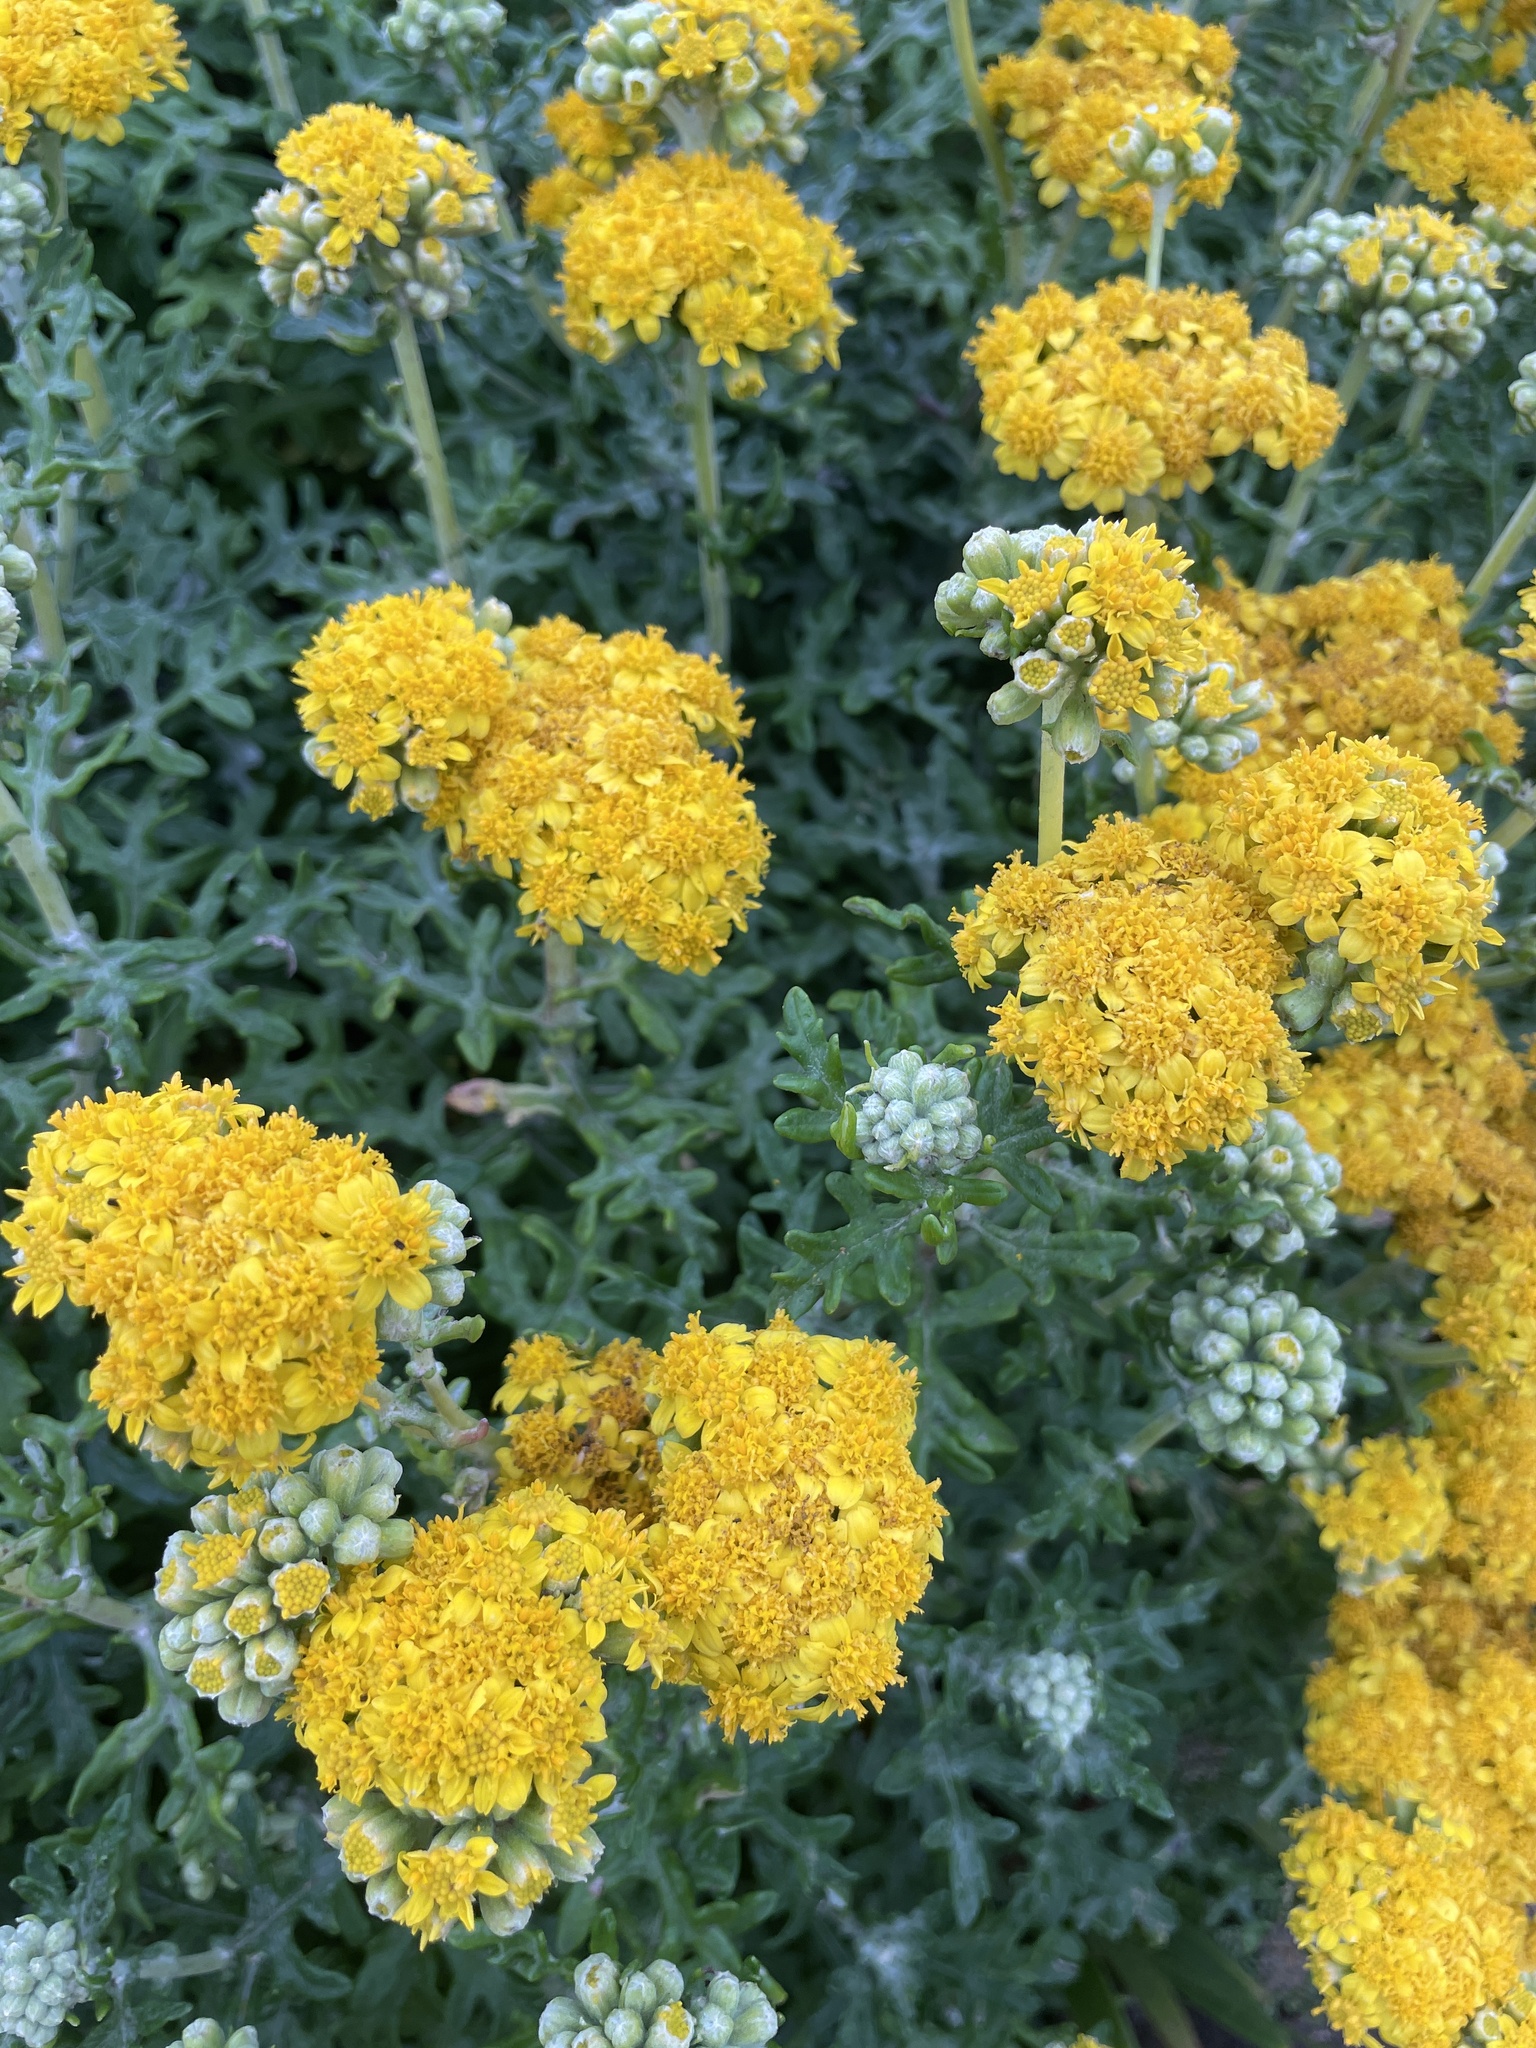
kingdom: Plantae
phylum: Tracheophyta
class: Magnoliopsida
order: Asterales
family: Asteraceae
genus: Eriophyllum
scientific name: Eriophyllum staechadifolium
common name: Lizardtail
